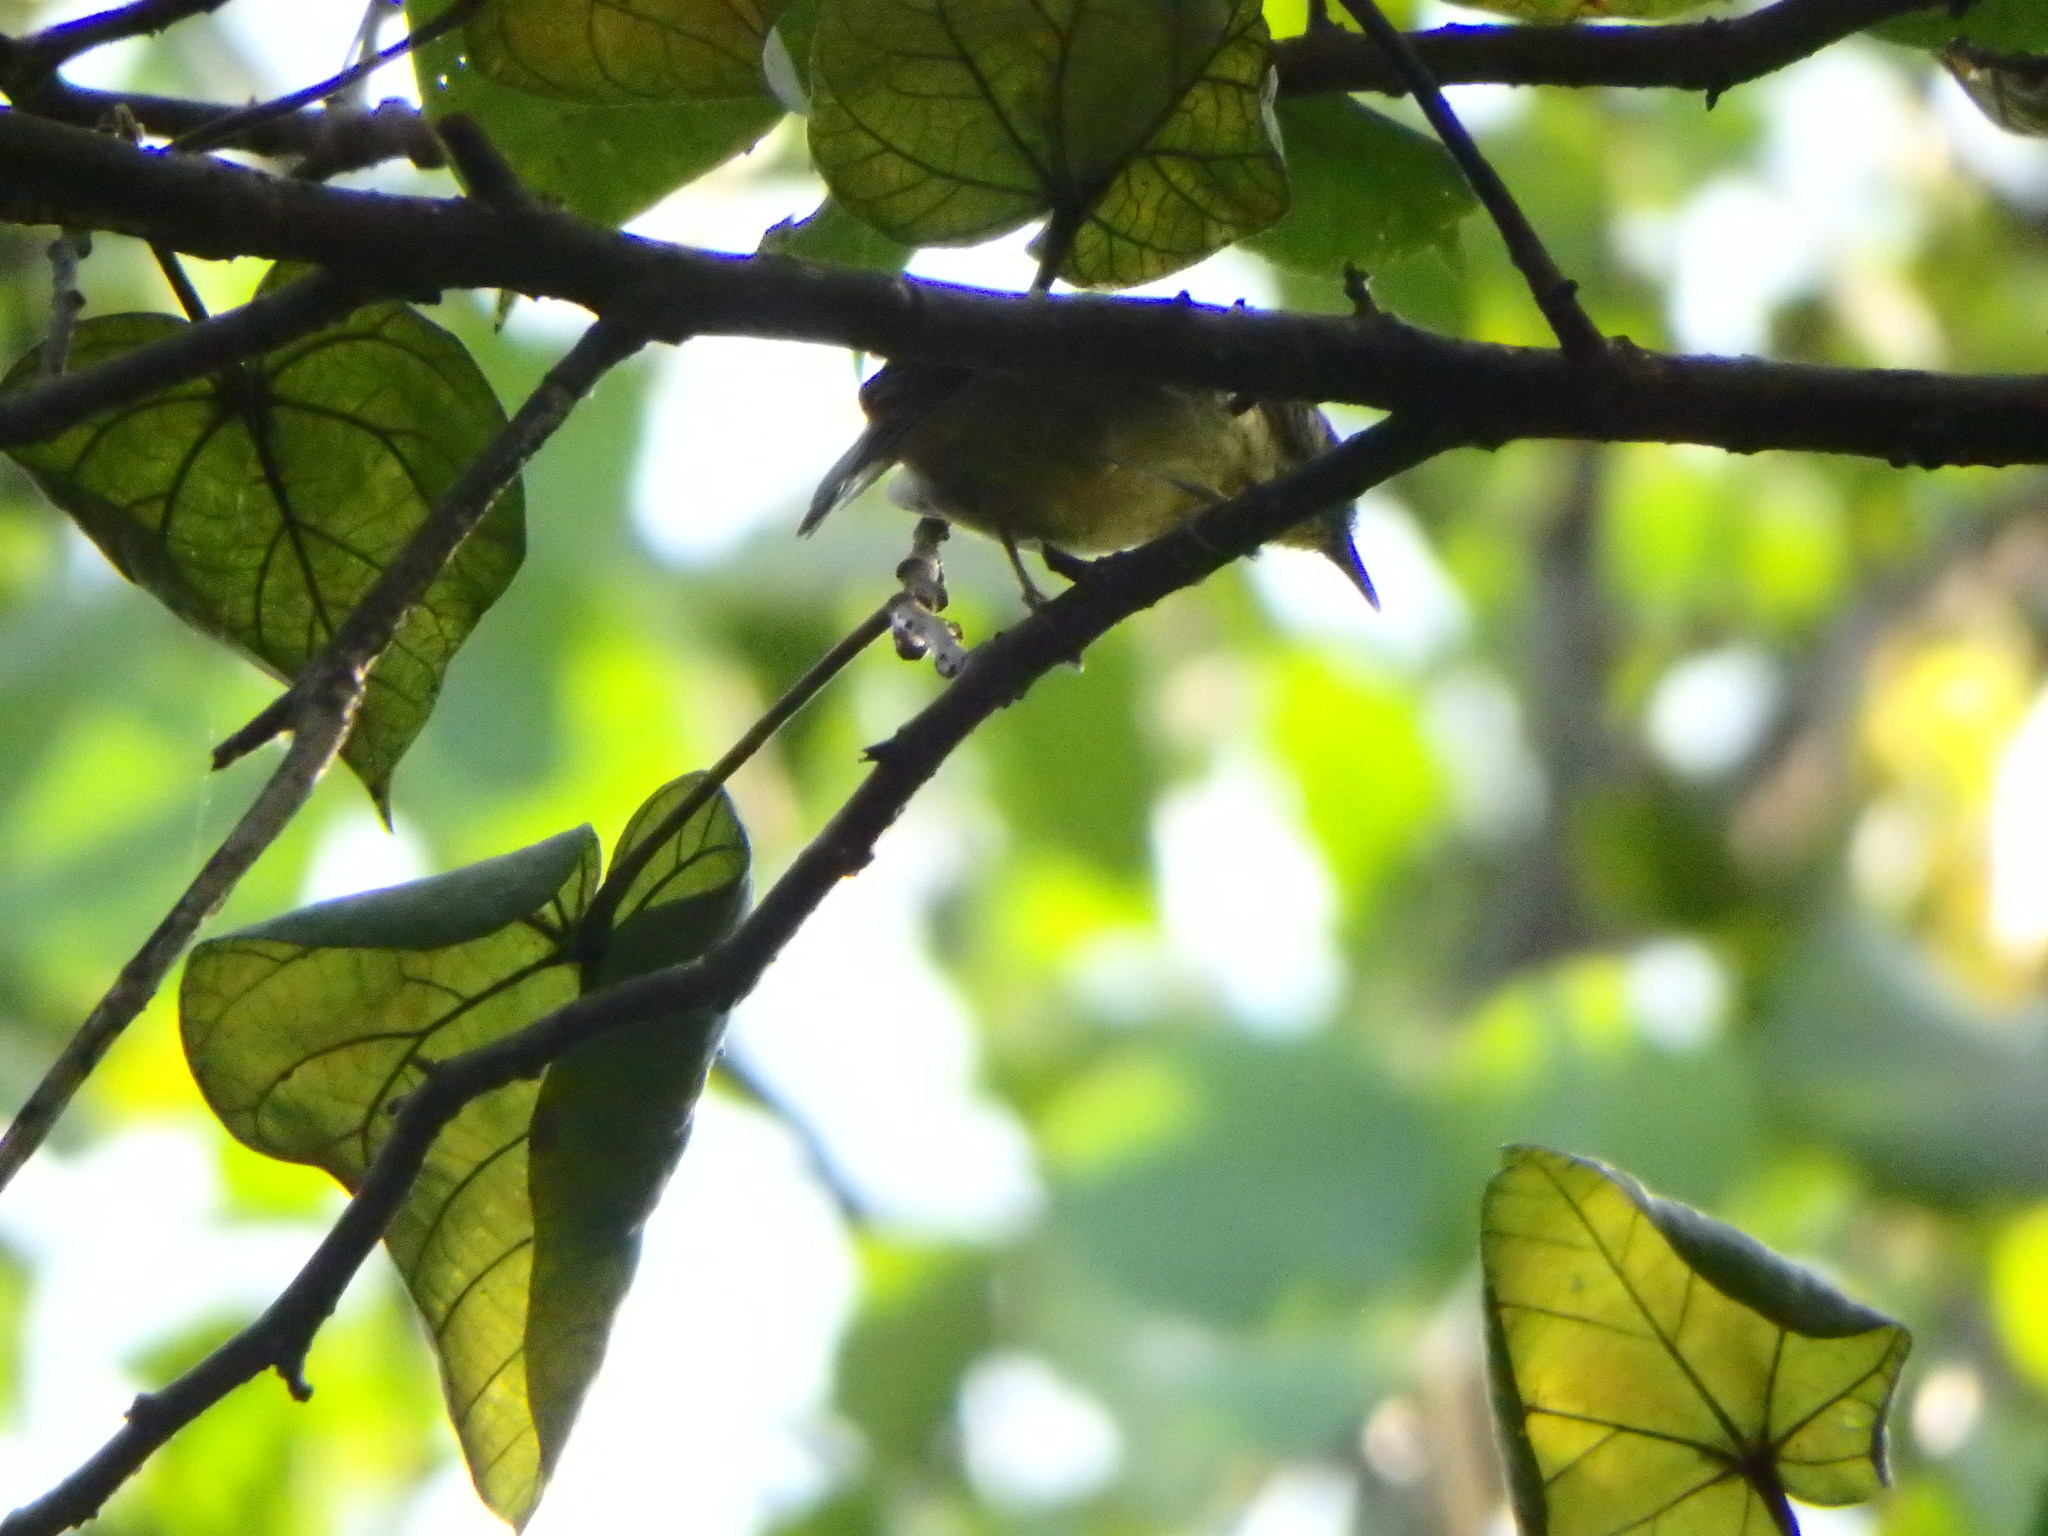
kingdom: Animalia
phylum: Chordata
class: Aves
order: Passeriformes
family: Timaliidae
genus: Macronus
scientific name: Macronus gularis
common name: Striped tit-babbler
